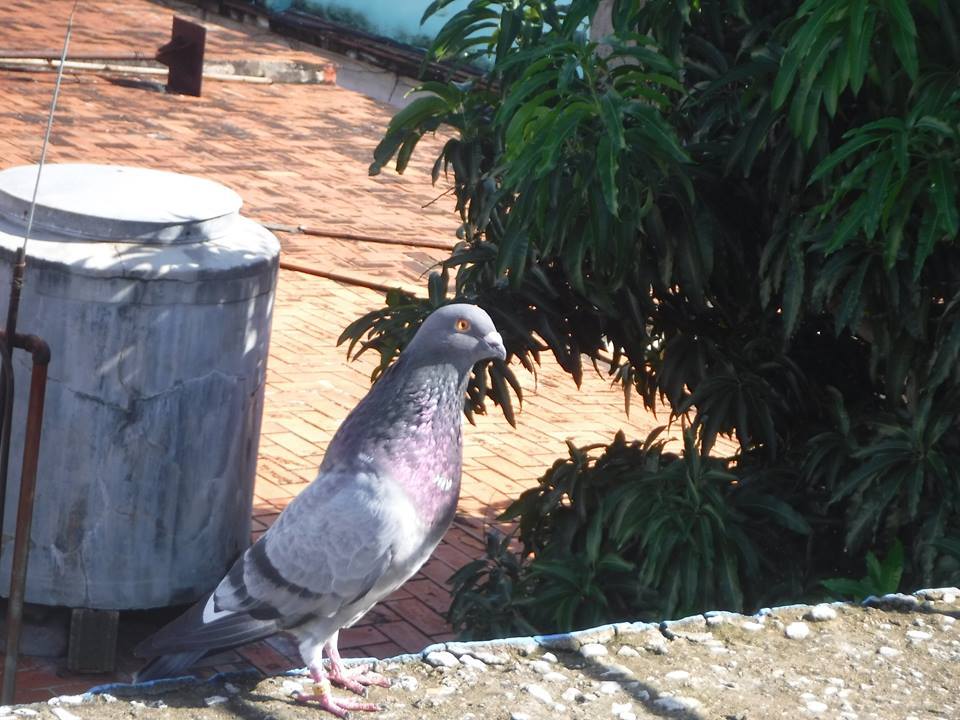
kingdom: Animalia
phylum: Chordata
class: Aves
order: Columbiformes
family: Columbidae
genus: Columba
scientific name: Columba livia
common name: Rock pigeon
